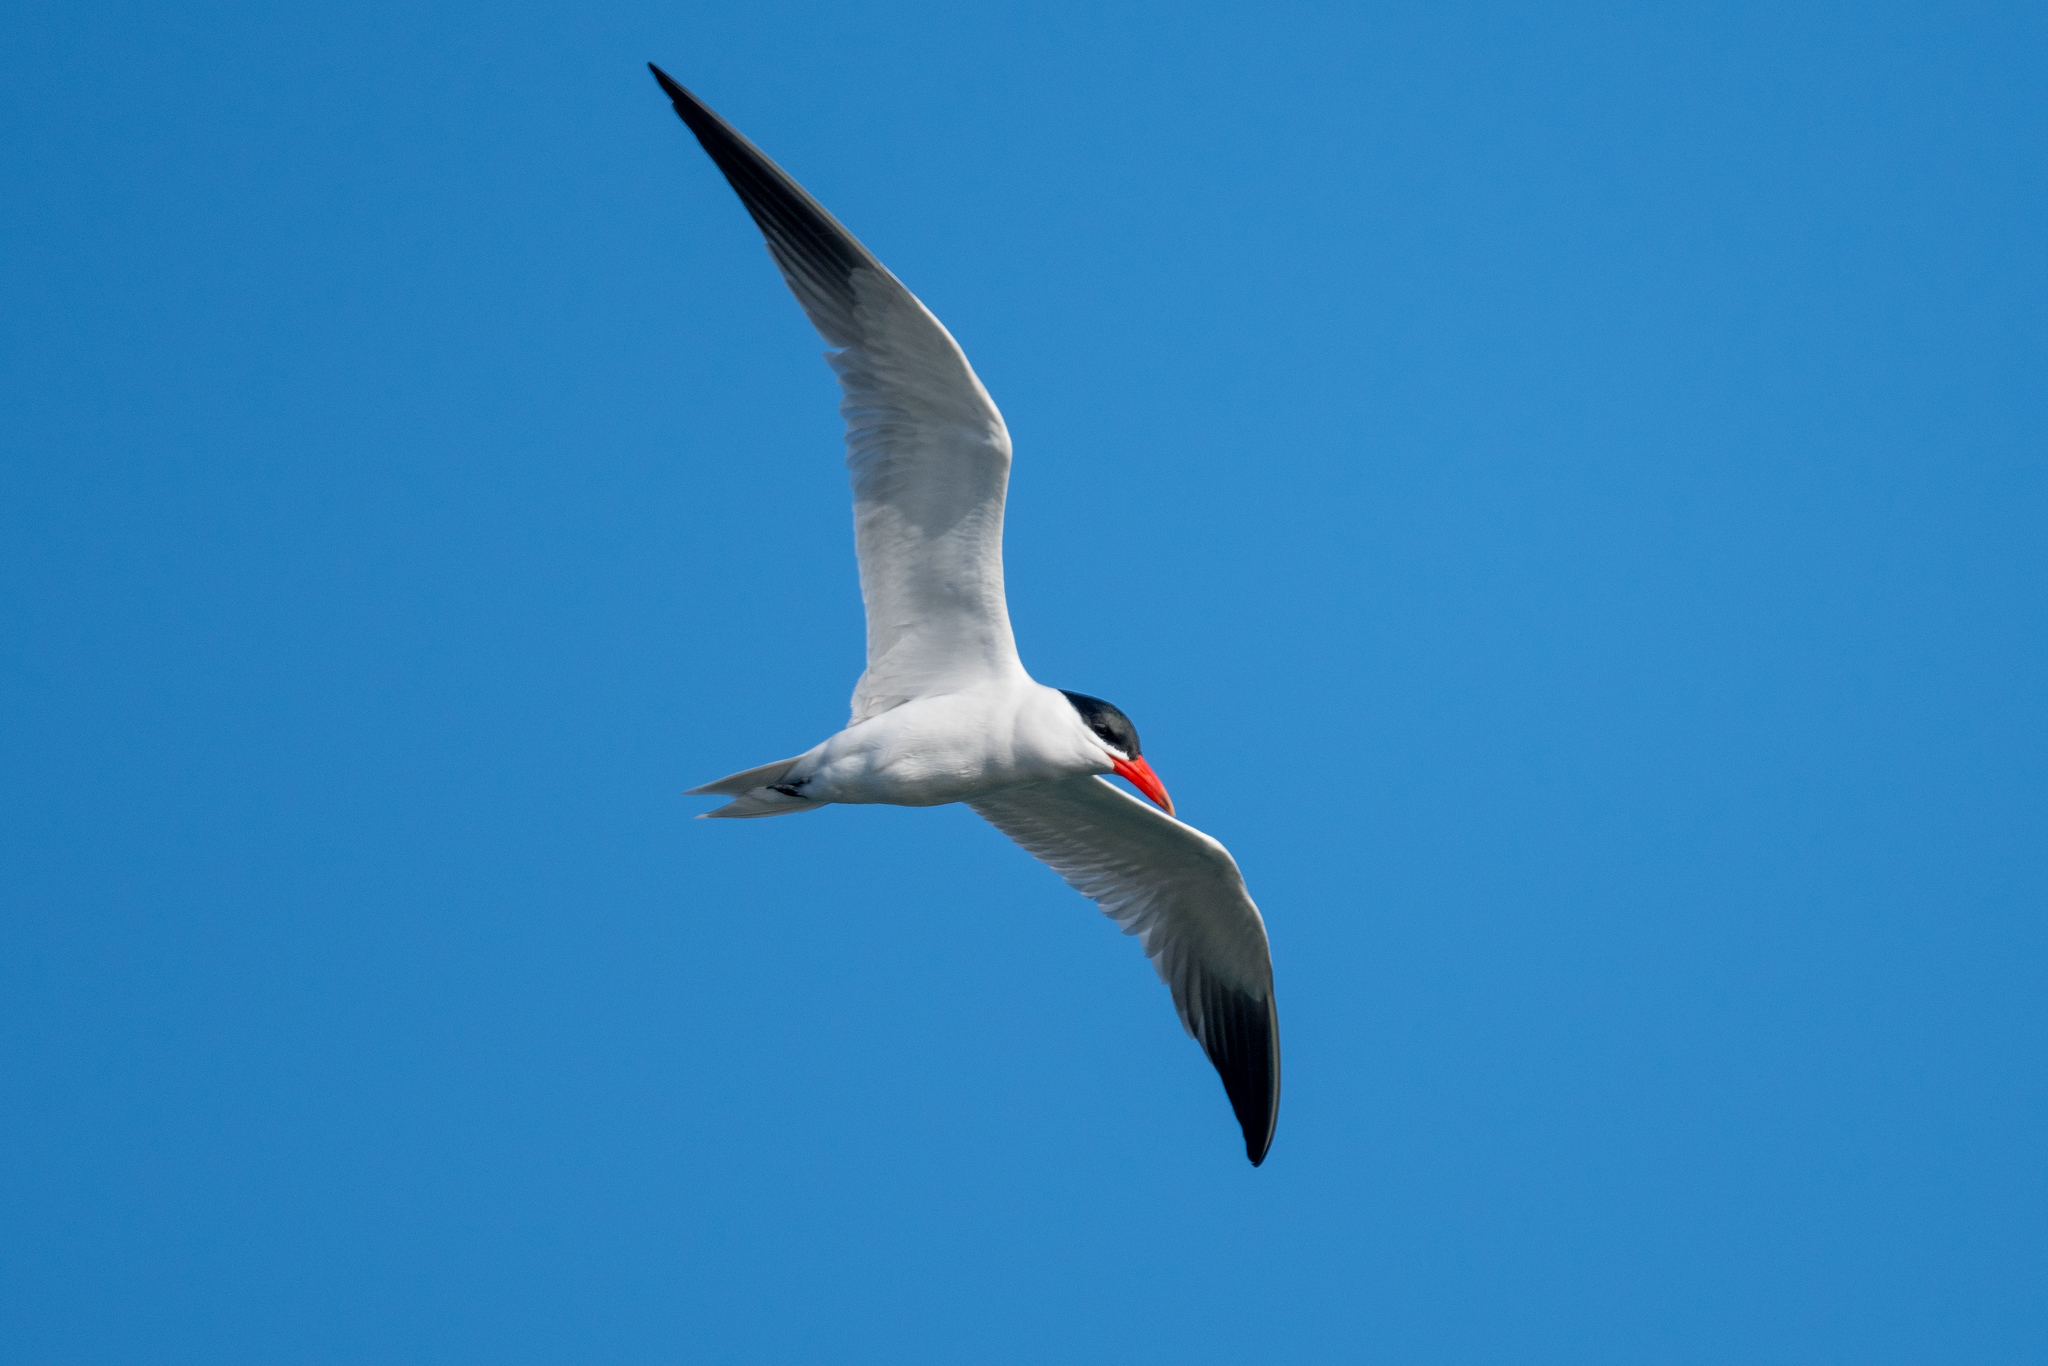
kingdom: Animalia
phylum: Chordata
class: Aves
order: Charadriiformes
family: Laridae
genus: Hydroprogne
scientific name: Hydroprogne caspia
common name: Caspian tern
